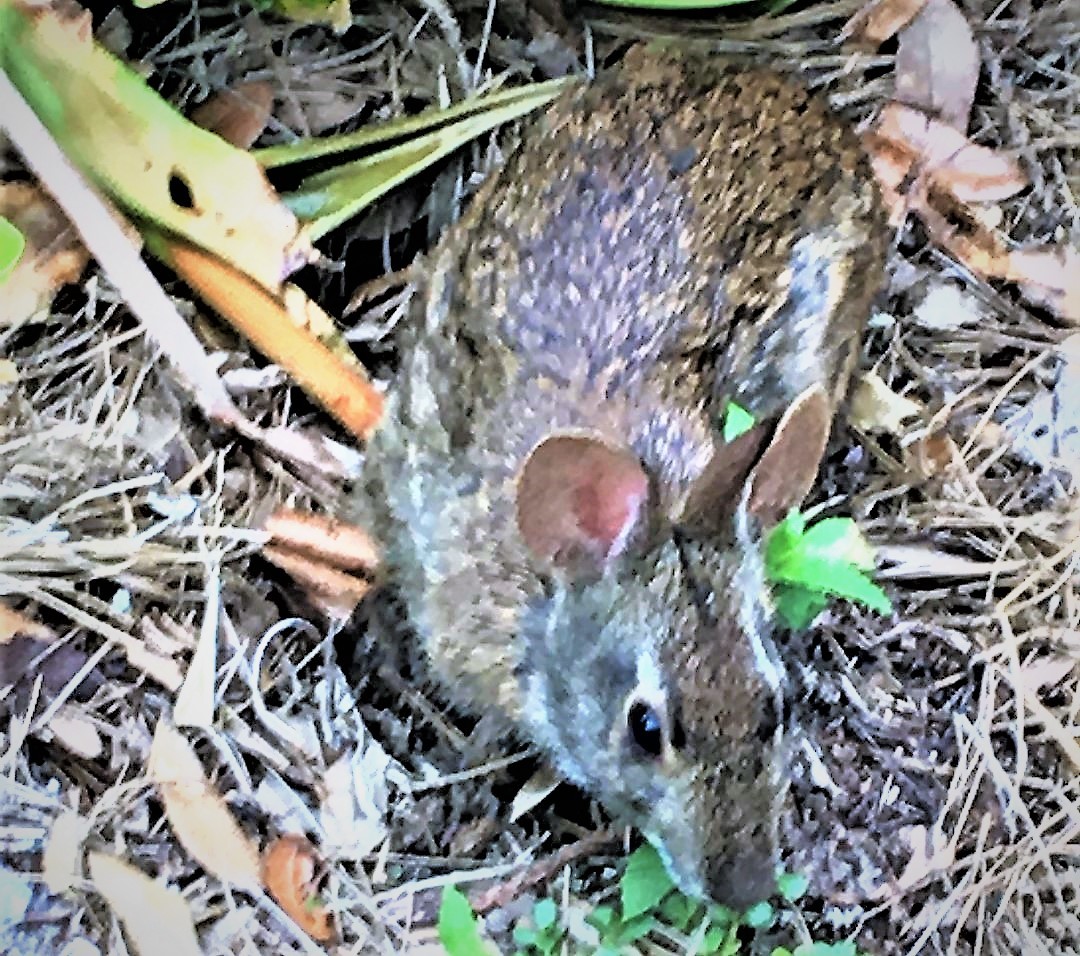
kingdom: Animalia
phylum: Chordata
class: Mammalia
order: Lagomorpha
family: Leporidae
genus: Sylvilagus
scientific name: Sylvilagus palustris
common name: Marsh rabbit
